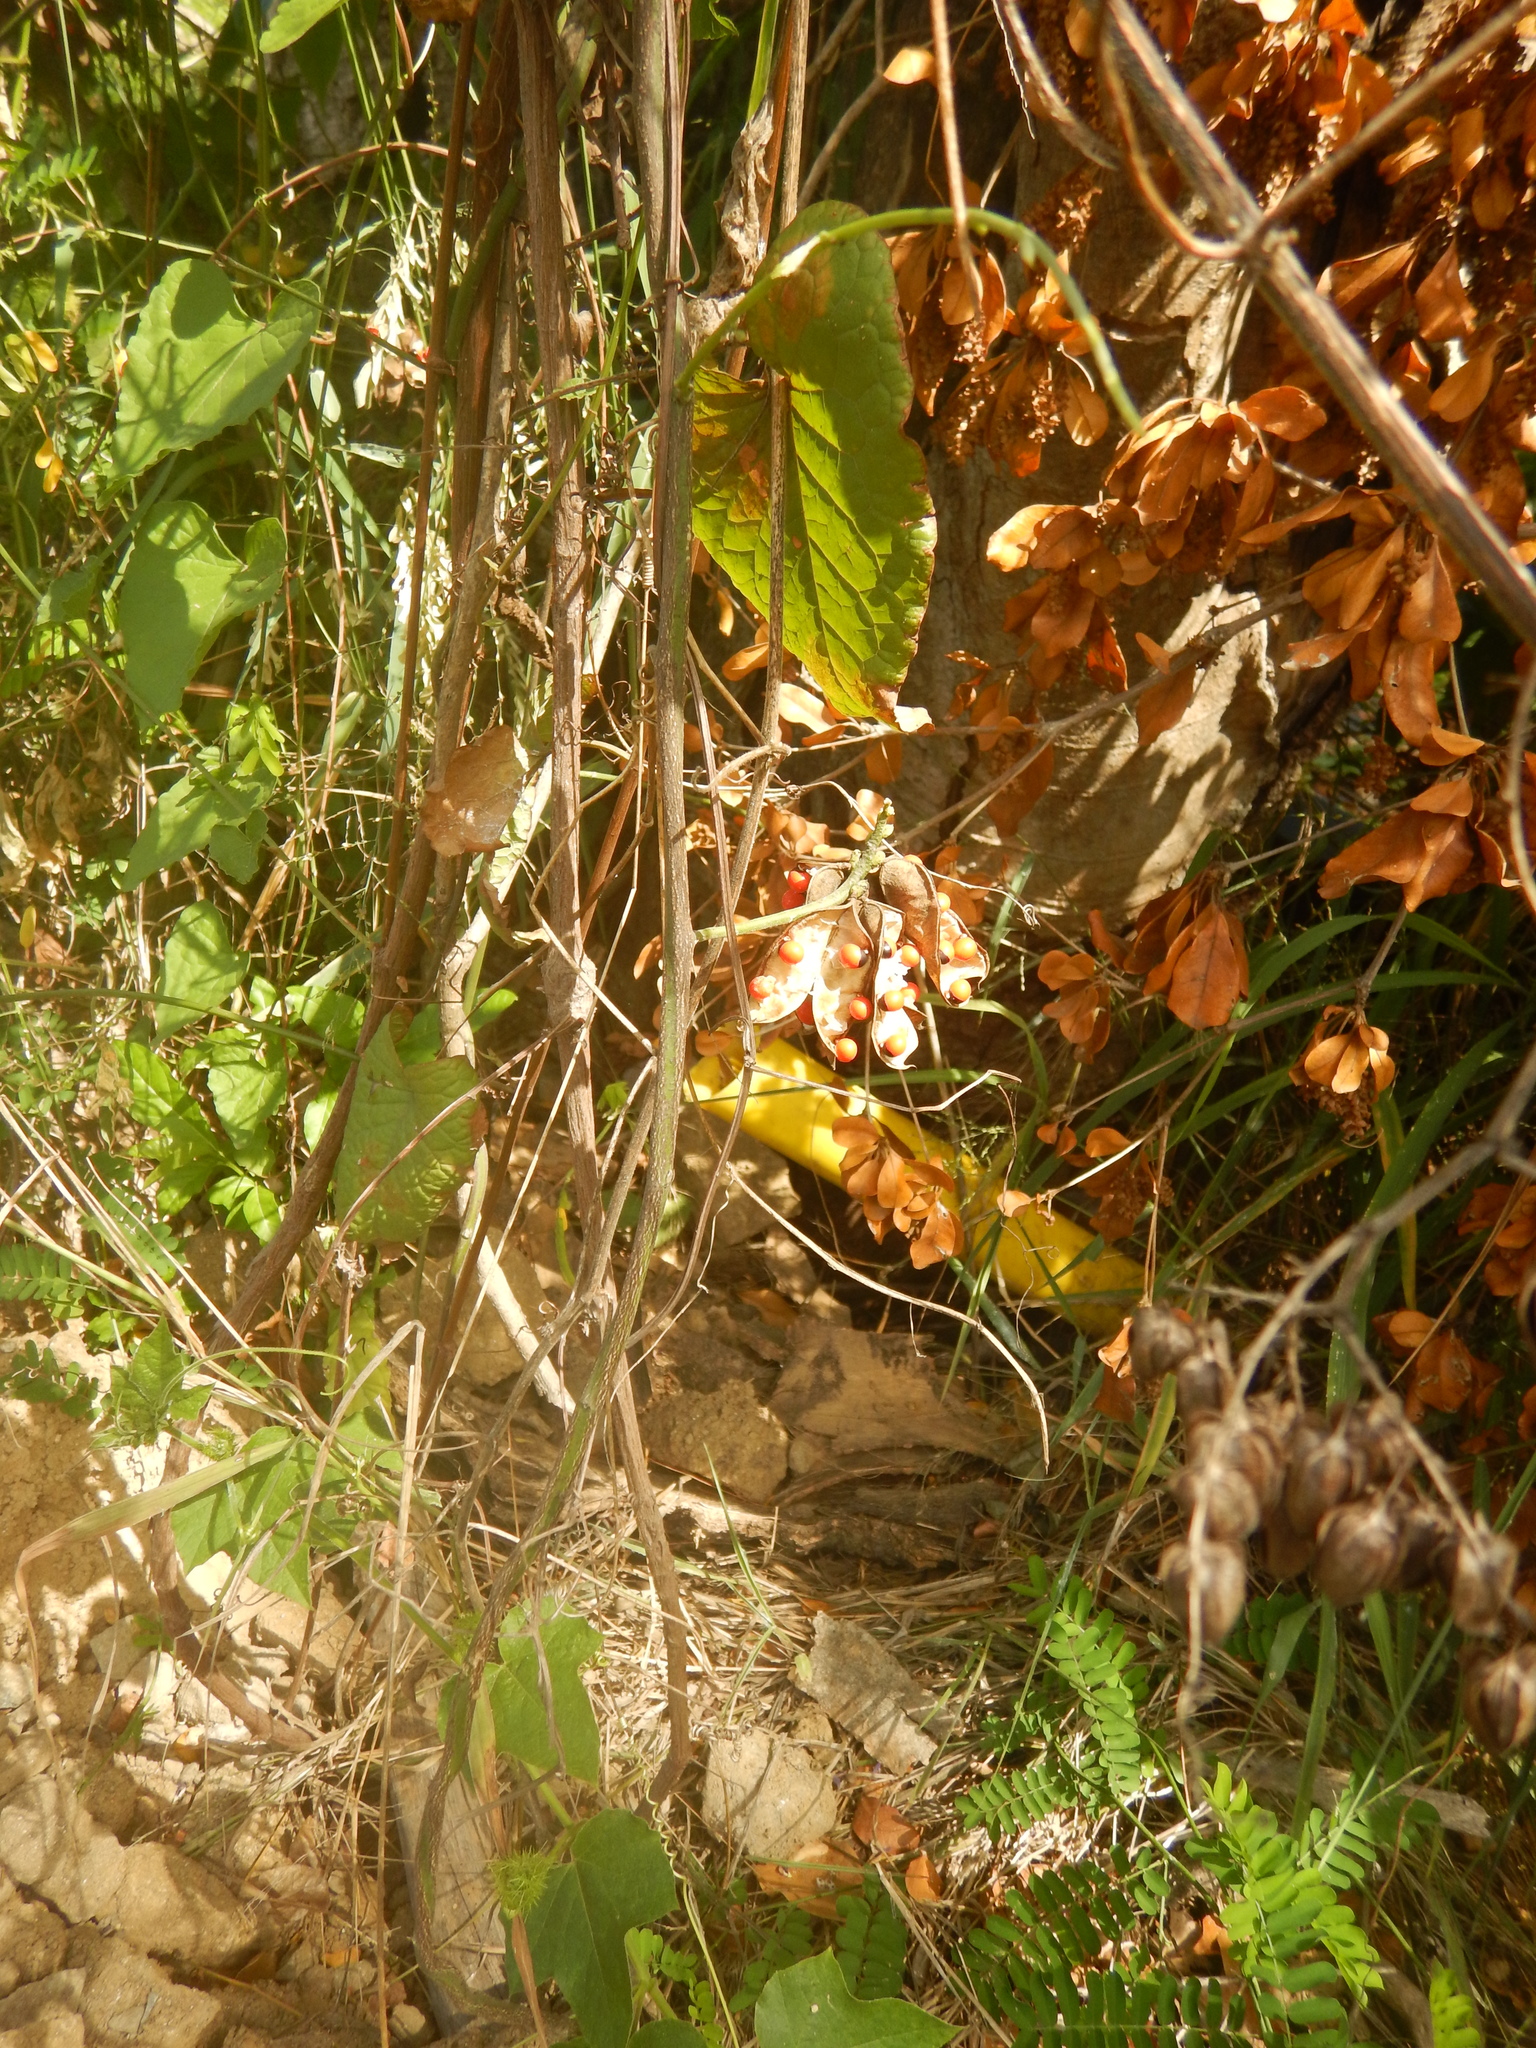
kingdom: Plantae
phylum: Tracheophyta
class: Magnoliopsida
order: Fabales
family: Fabaceae
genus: Abrus
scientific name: Abrus precatorius
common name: Rosarypea
